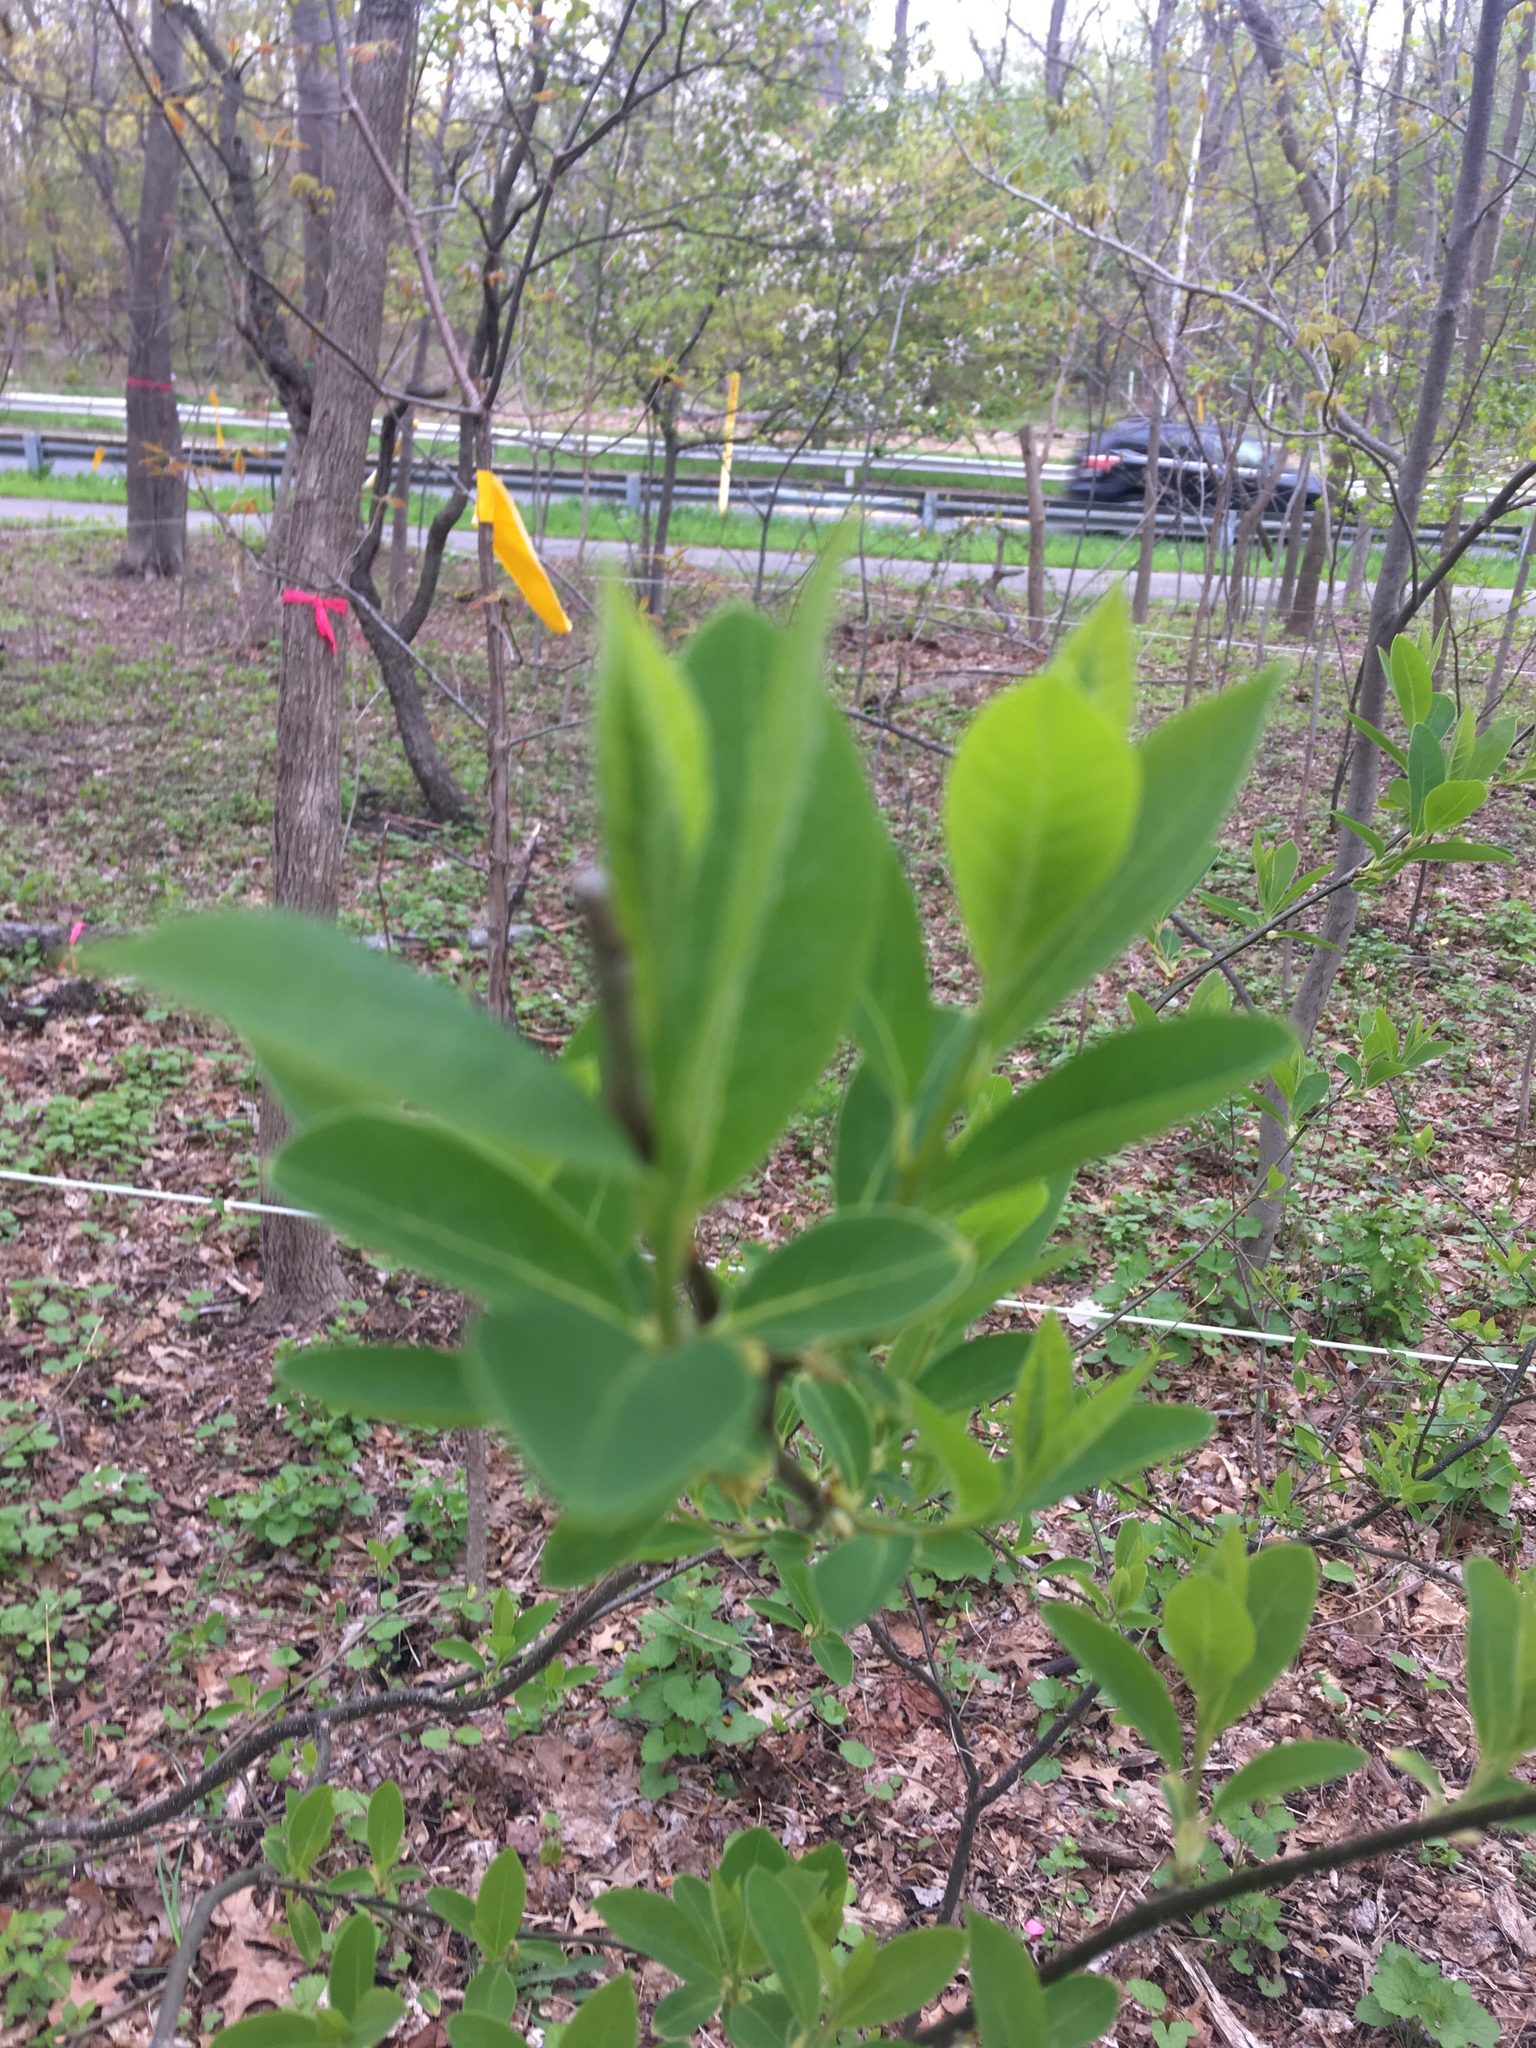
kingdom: Plantae
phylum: Tracheophyta
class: Magnoliopsida
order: Laurales
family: Lauraceae
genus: Lindera
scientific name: Lindera benzoin
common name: Spicebush
